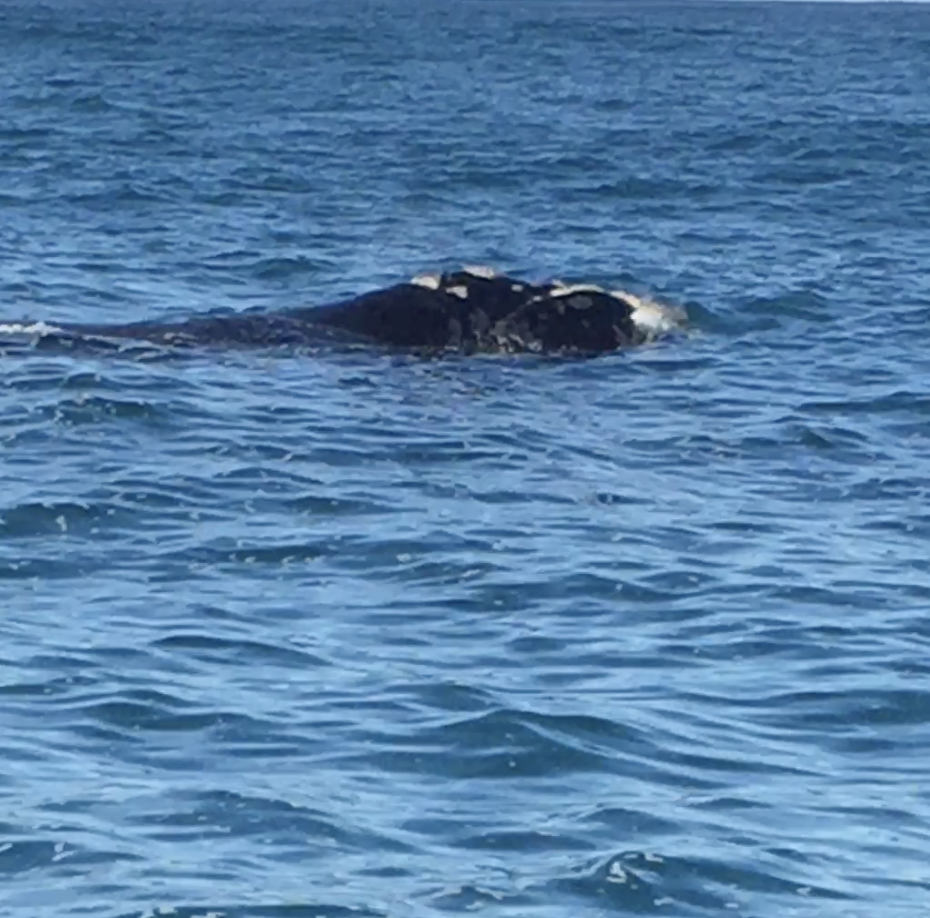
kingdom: Animalia
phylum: Chordata
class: Mammalia
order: Cetacea
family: Balaenidae
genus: Eubalaena
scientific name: Eubalaena australis
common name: Southern right whale
